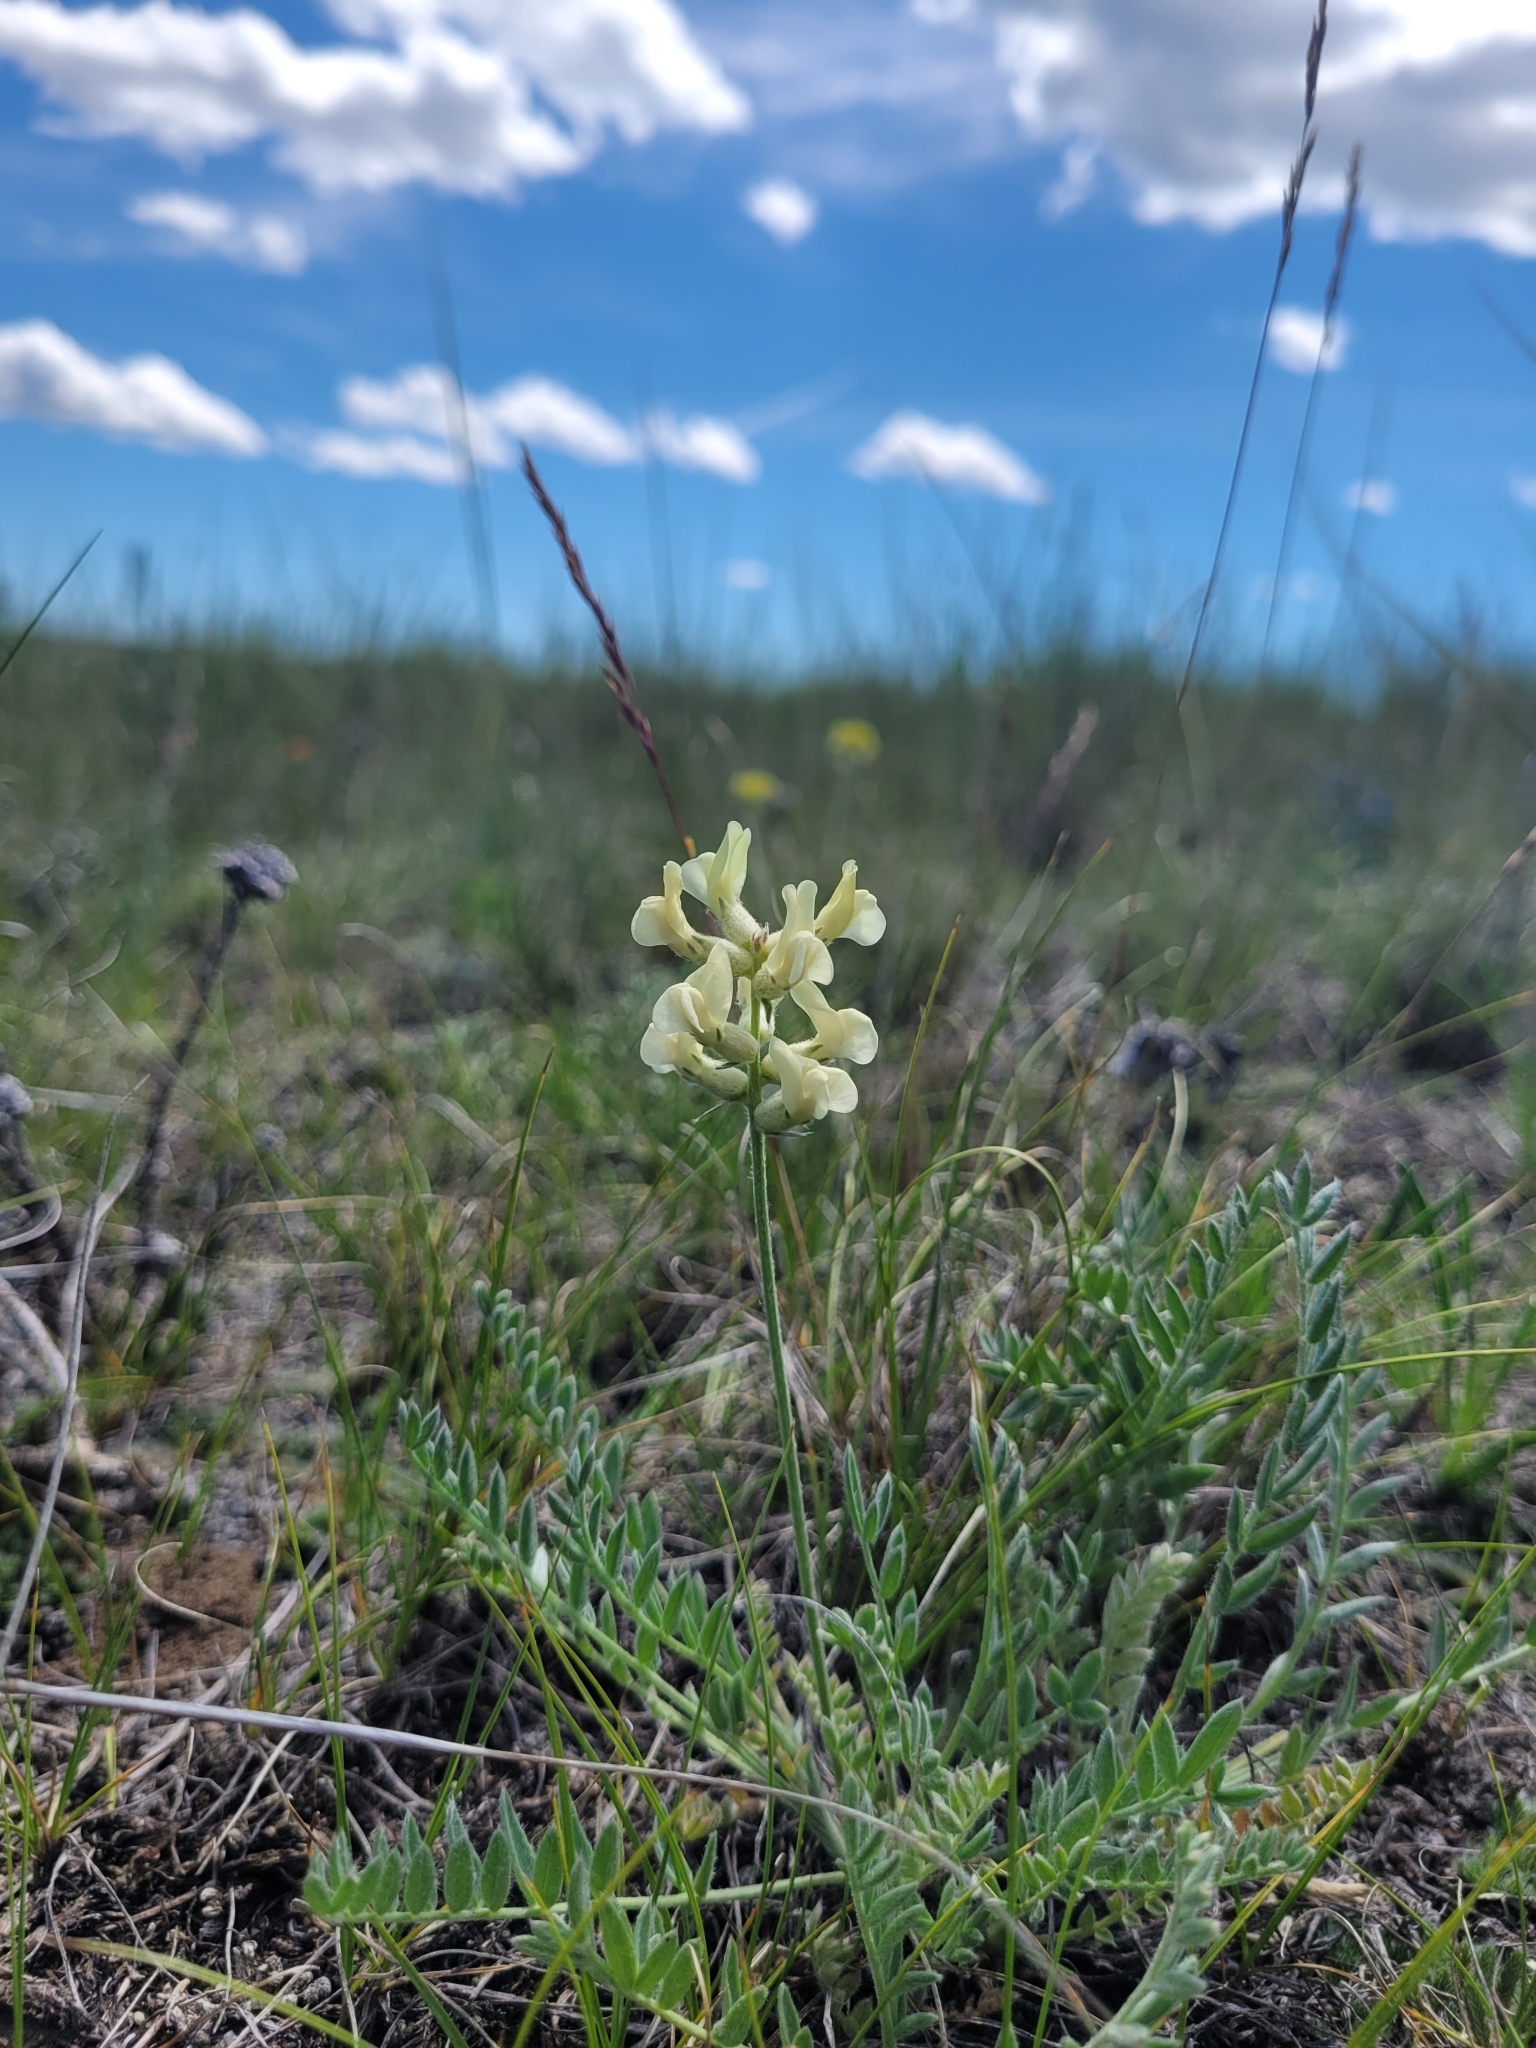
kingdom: Plantae
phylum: Tracheophyta
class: Magnoliopsida
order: Fabales
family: Fabaceae
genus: Oxytropis
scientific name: Oxytropis campestris
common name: Field locoweed
